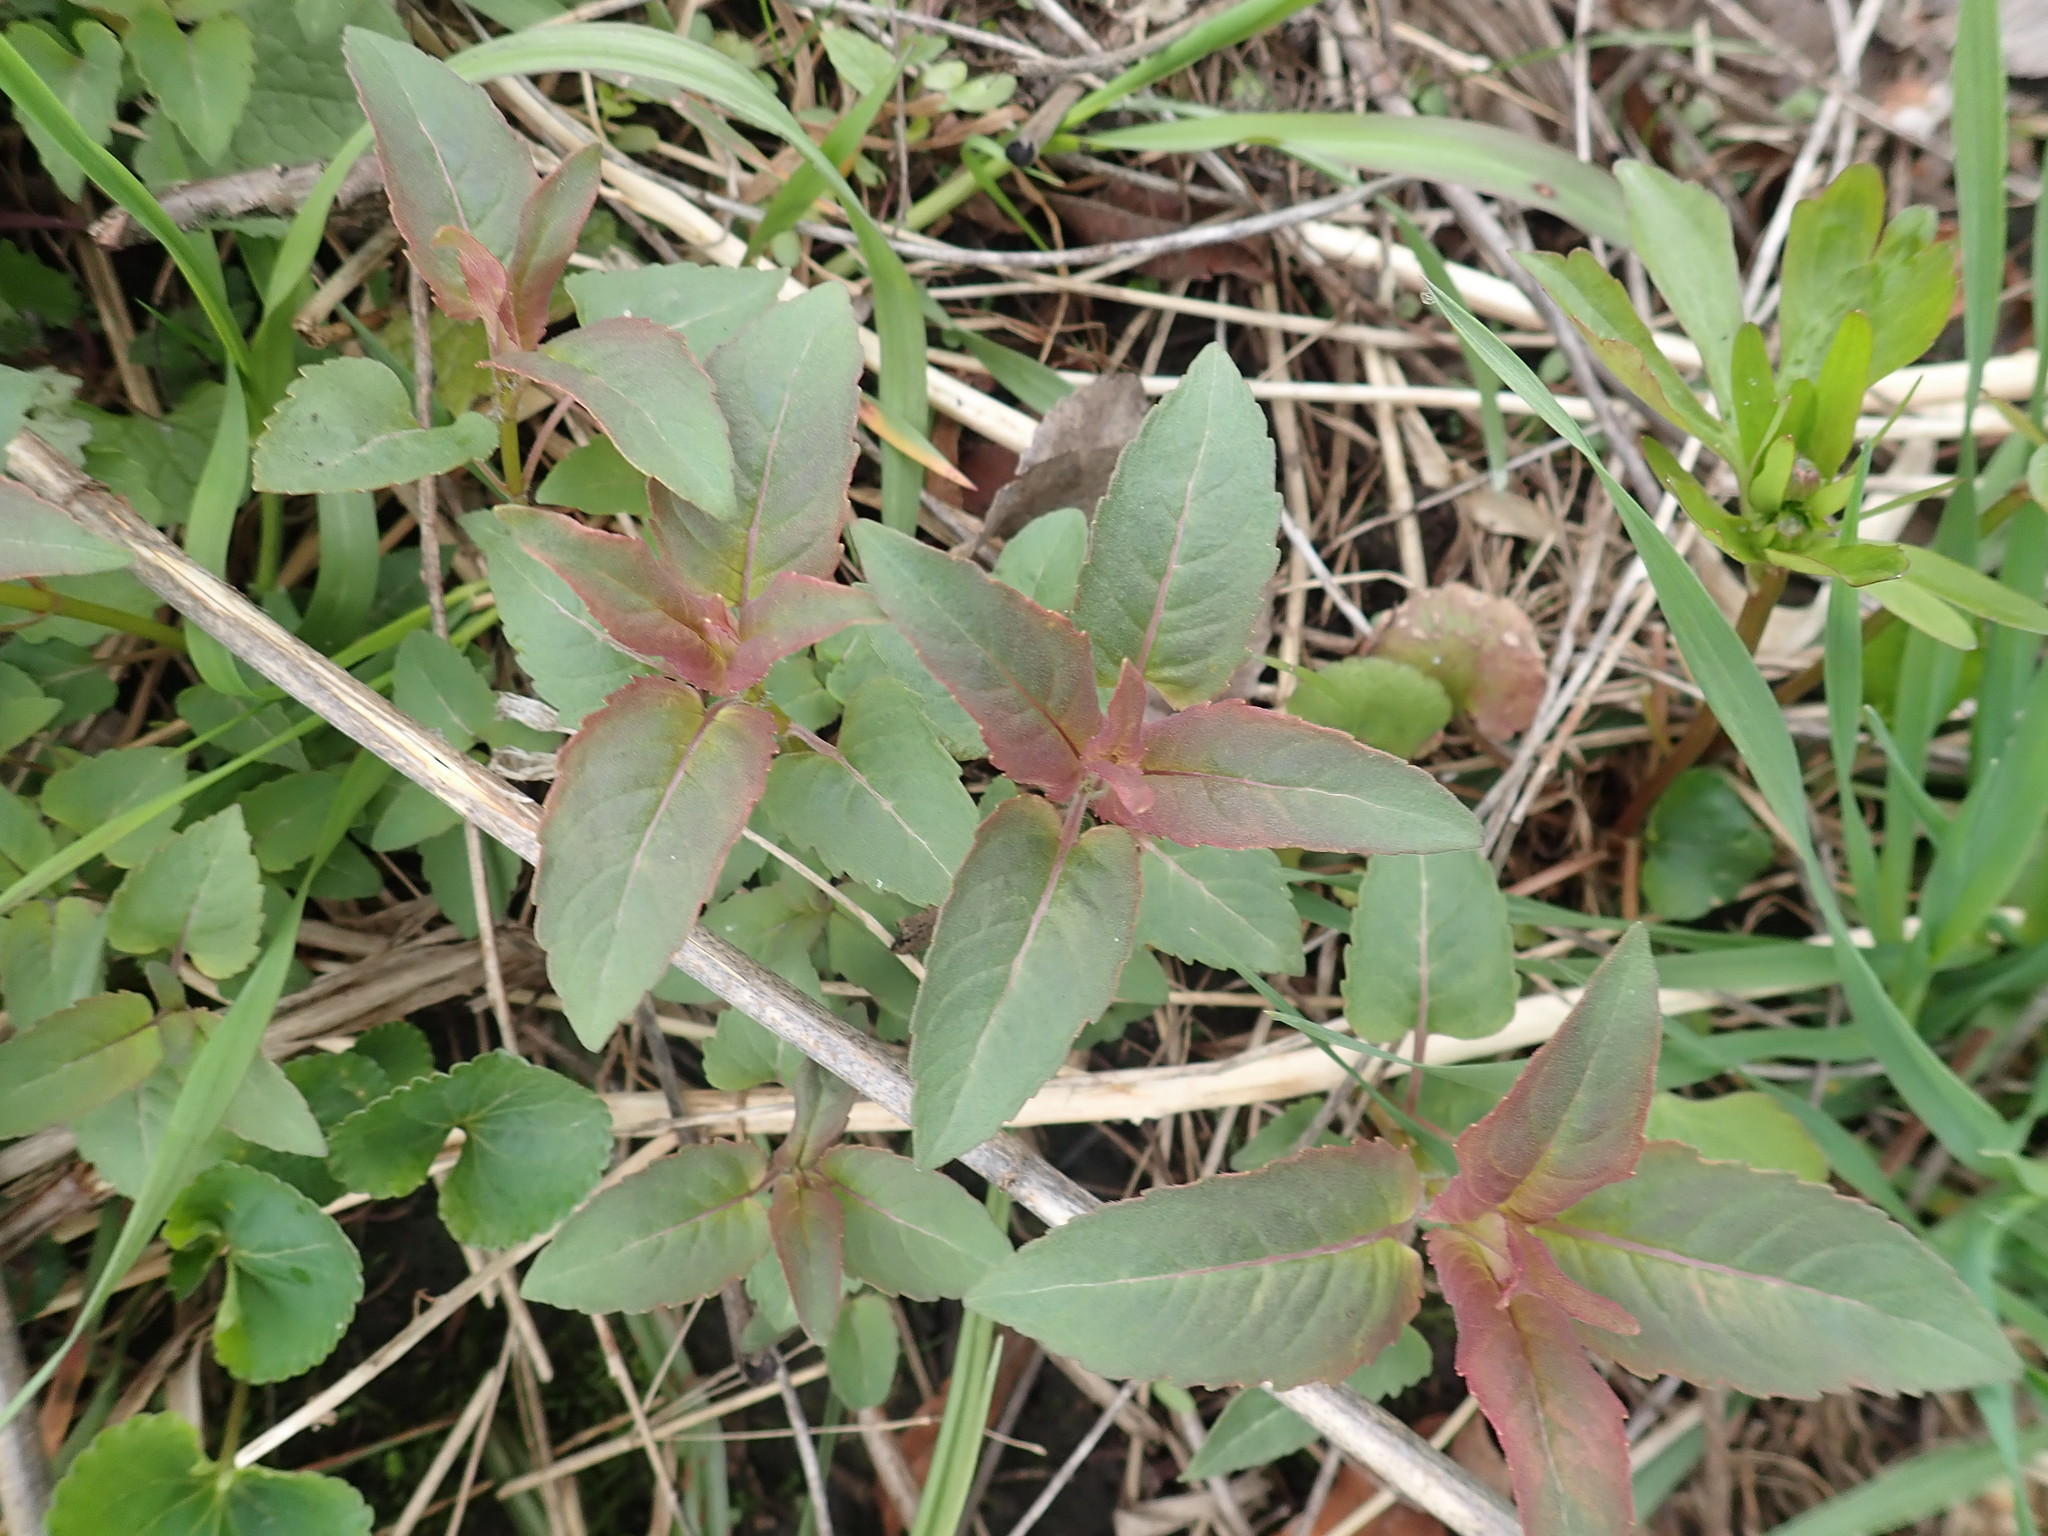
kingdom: Plantae
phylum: Tracheophyta
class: Magnoliopsida
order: Lamiales
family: Lamiaceae
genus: Monarda
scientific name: Monarda fistulosa
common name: Purple beebalm
